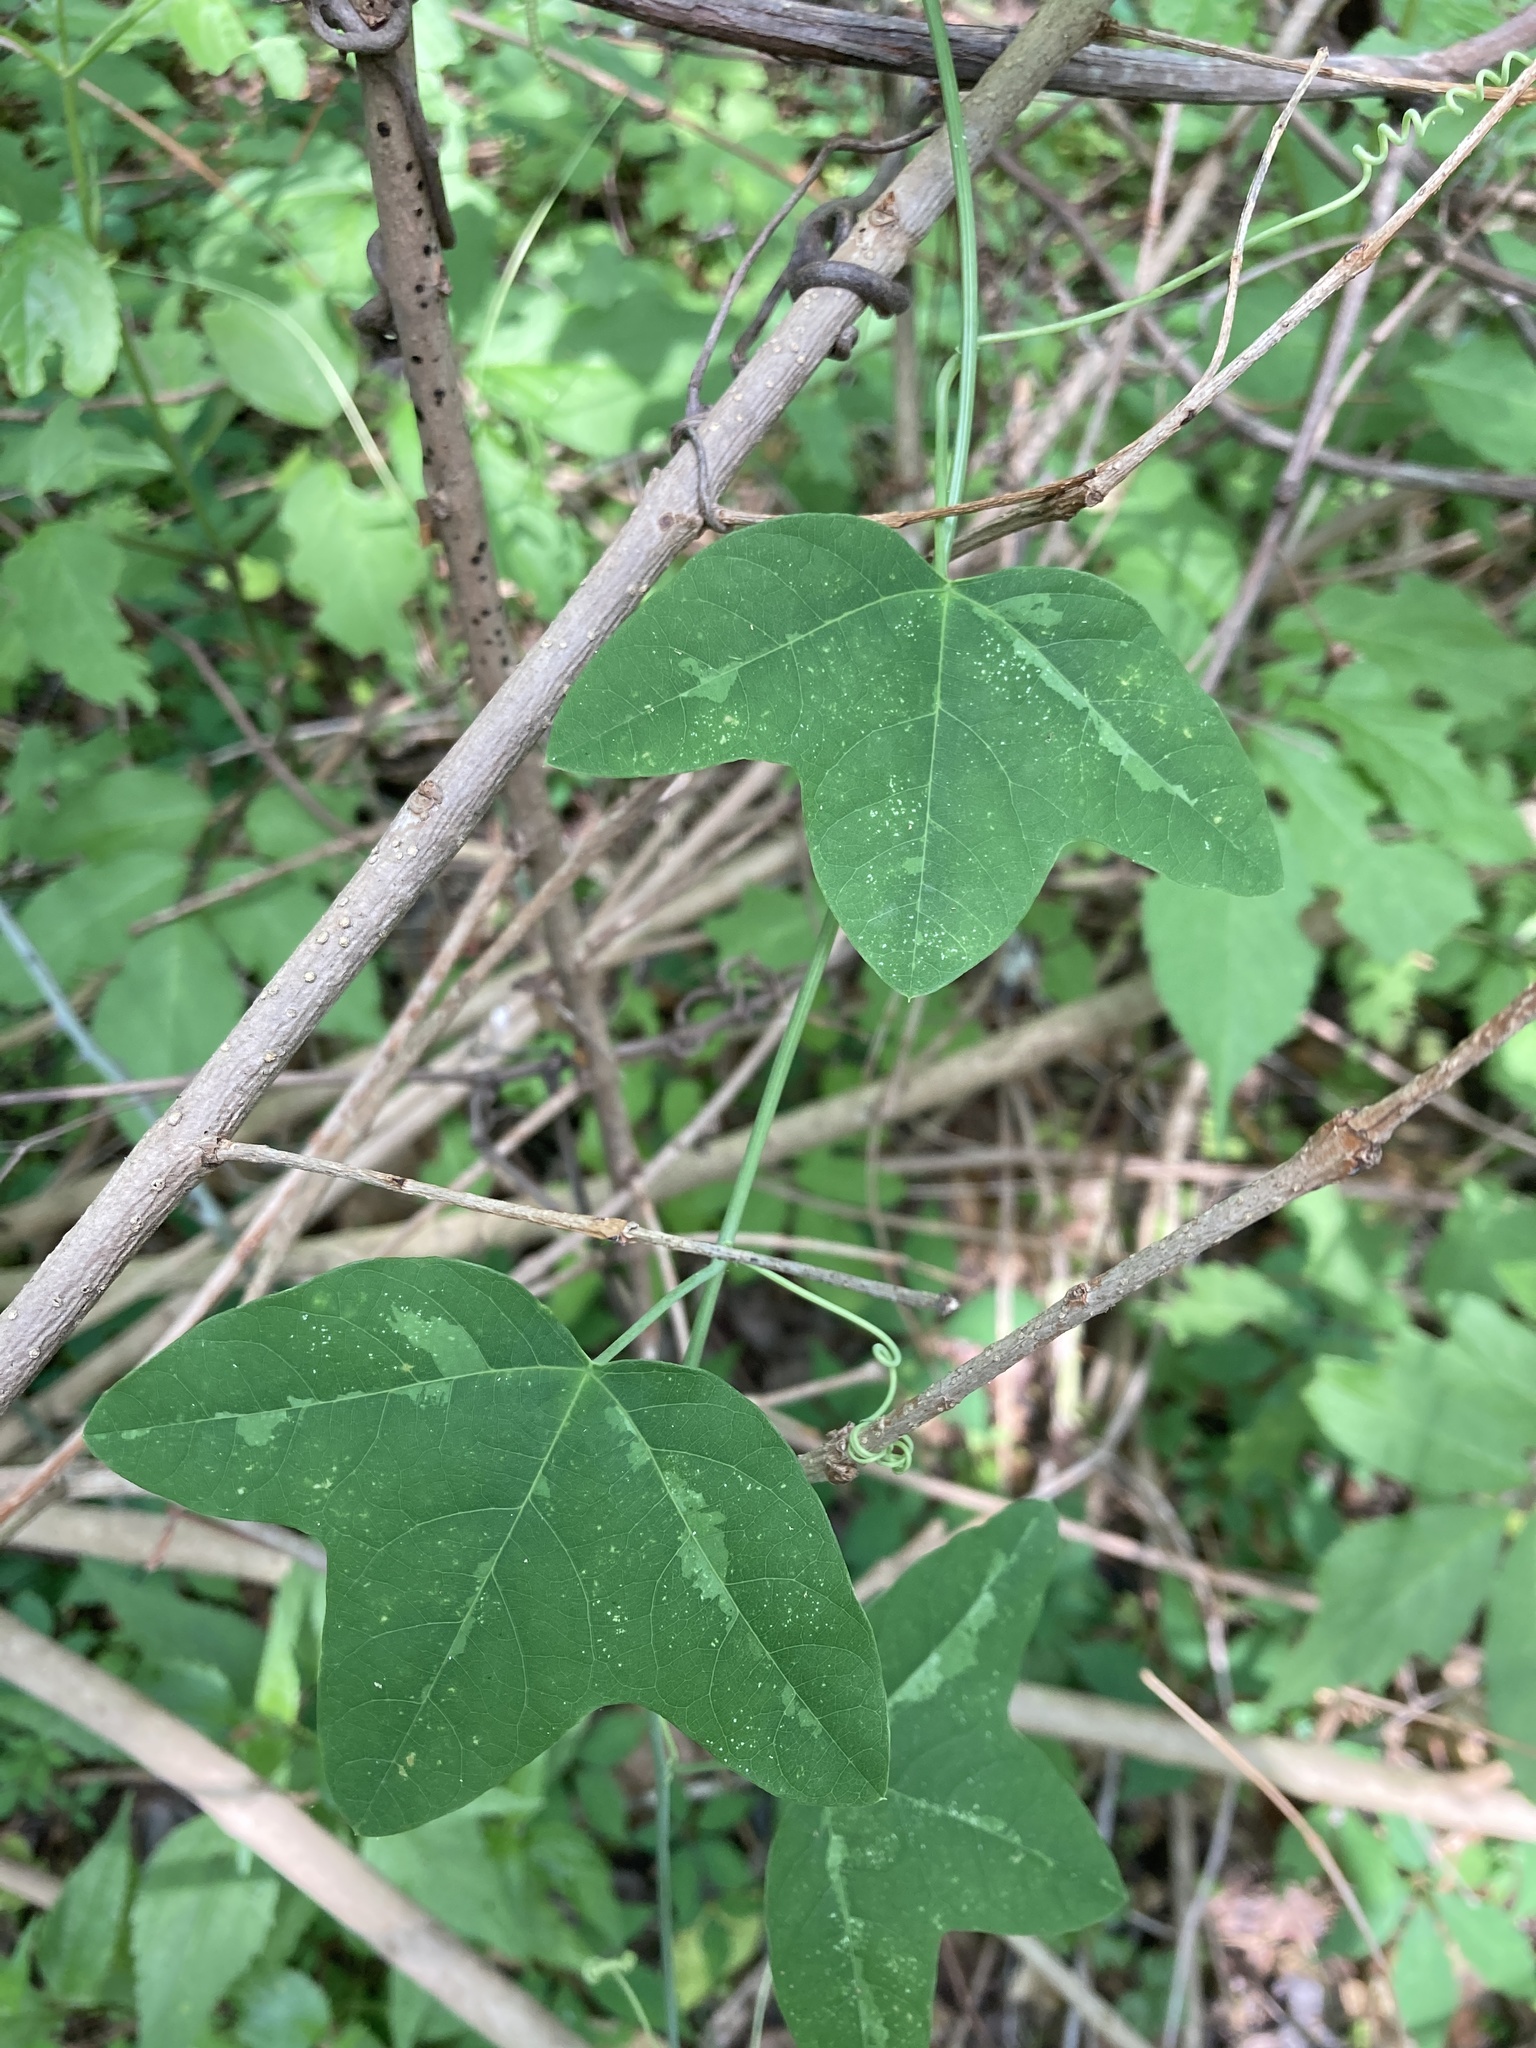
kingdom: Plantae
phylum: Tracheophyta
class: Magnoliopsida
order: Malpighiales
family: Passifloraceae
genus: Passiflora
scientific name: Passiflora lutea
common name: Yellow passionflower
